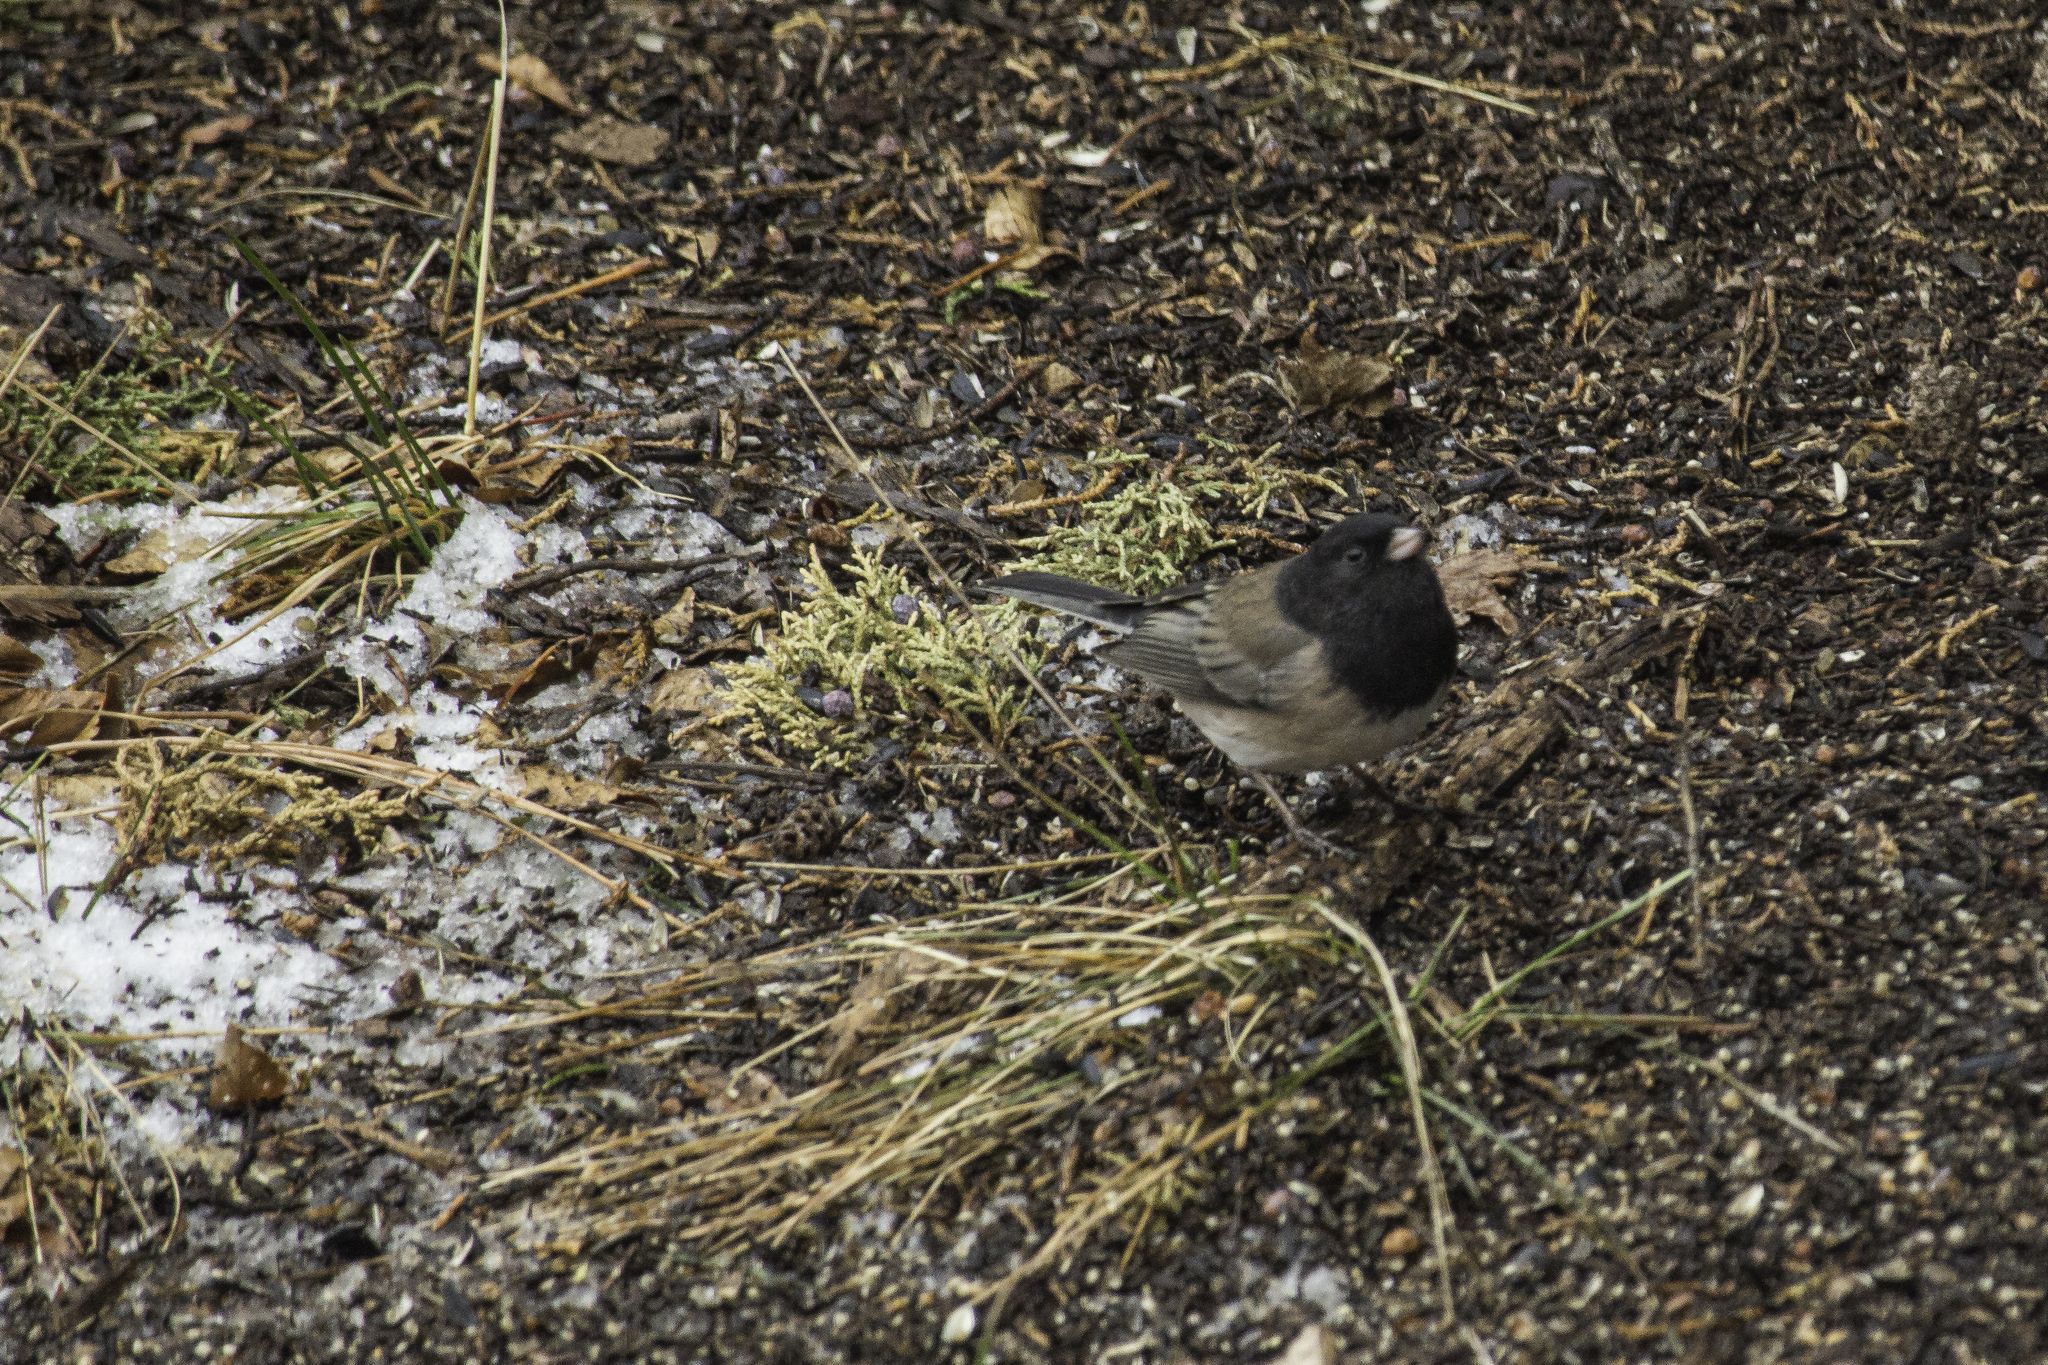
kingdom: Animalia
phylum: Chordata
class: Aves
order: Passeriformes
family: Passerellidae
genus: Junco
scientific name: Junco hyemalis
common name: Dark-eyed junco
